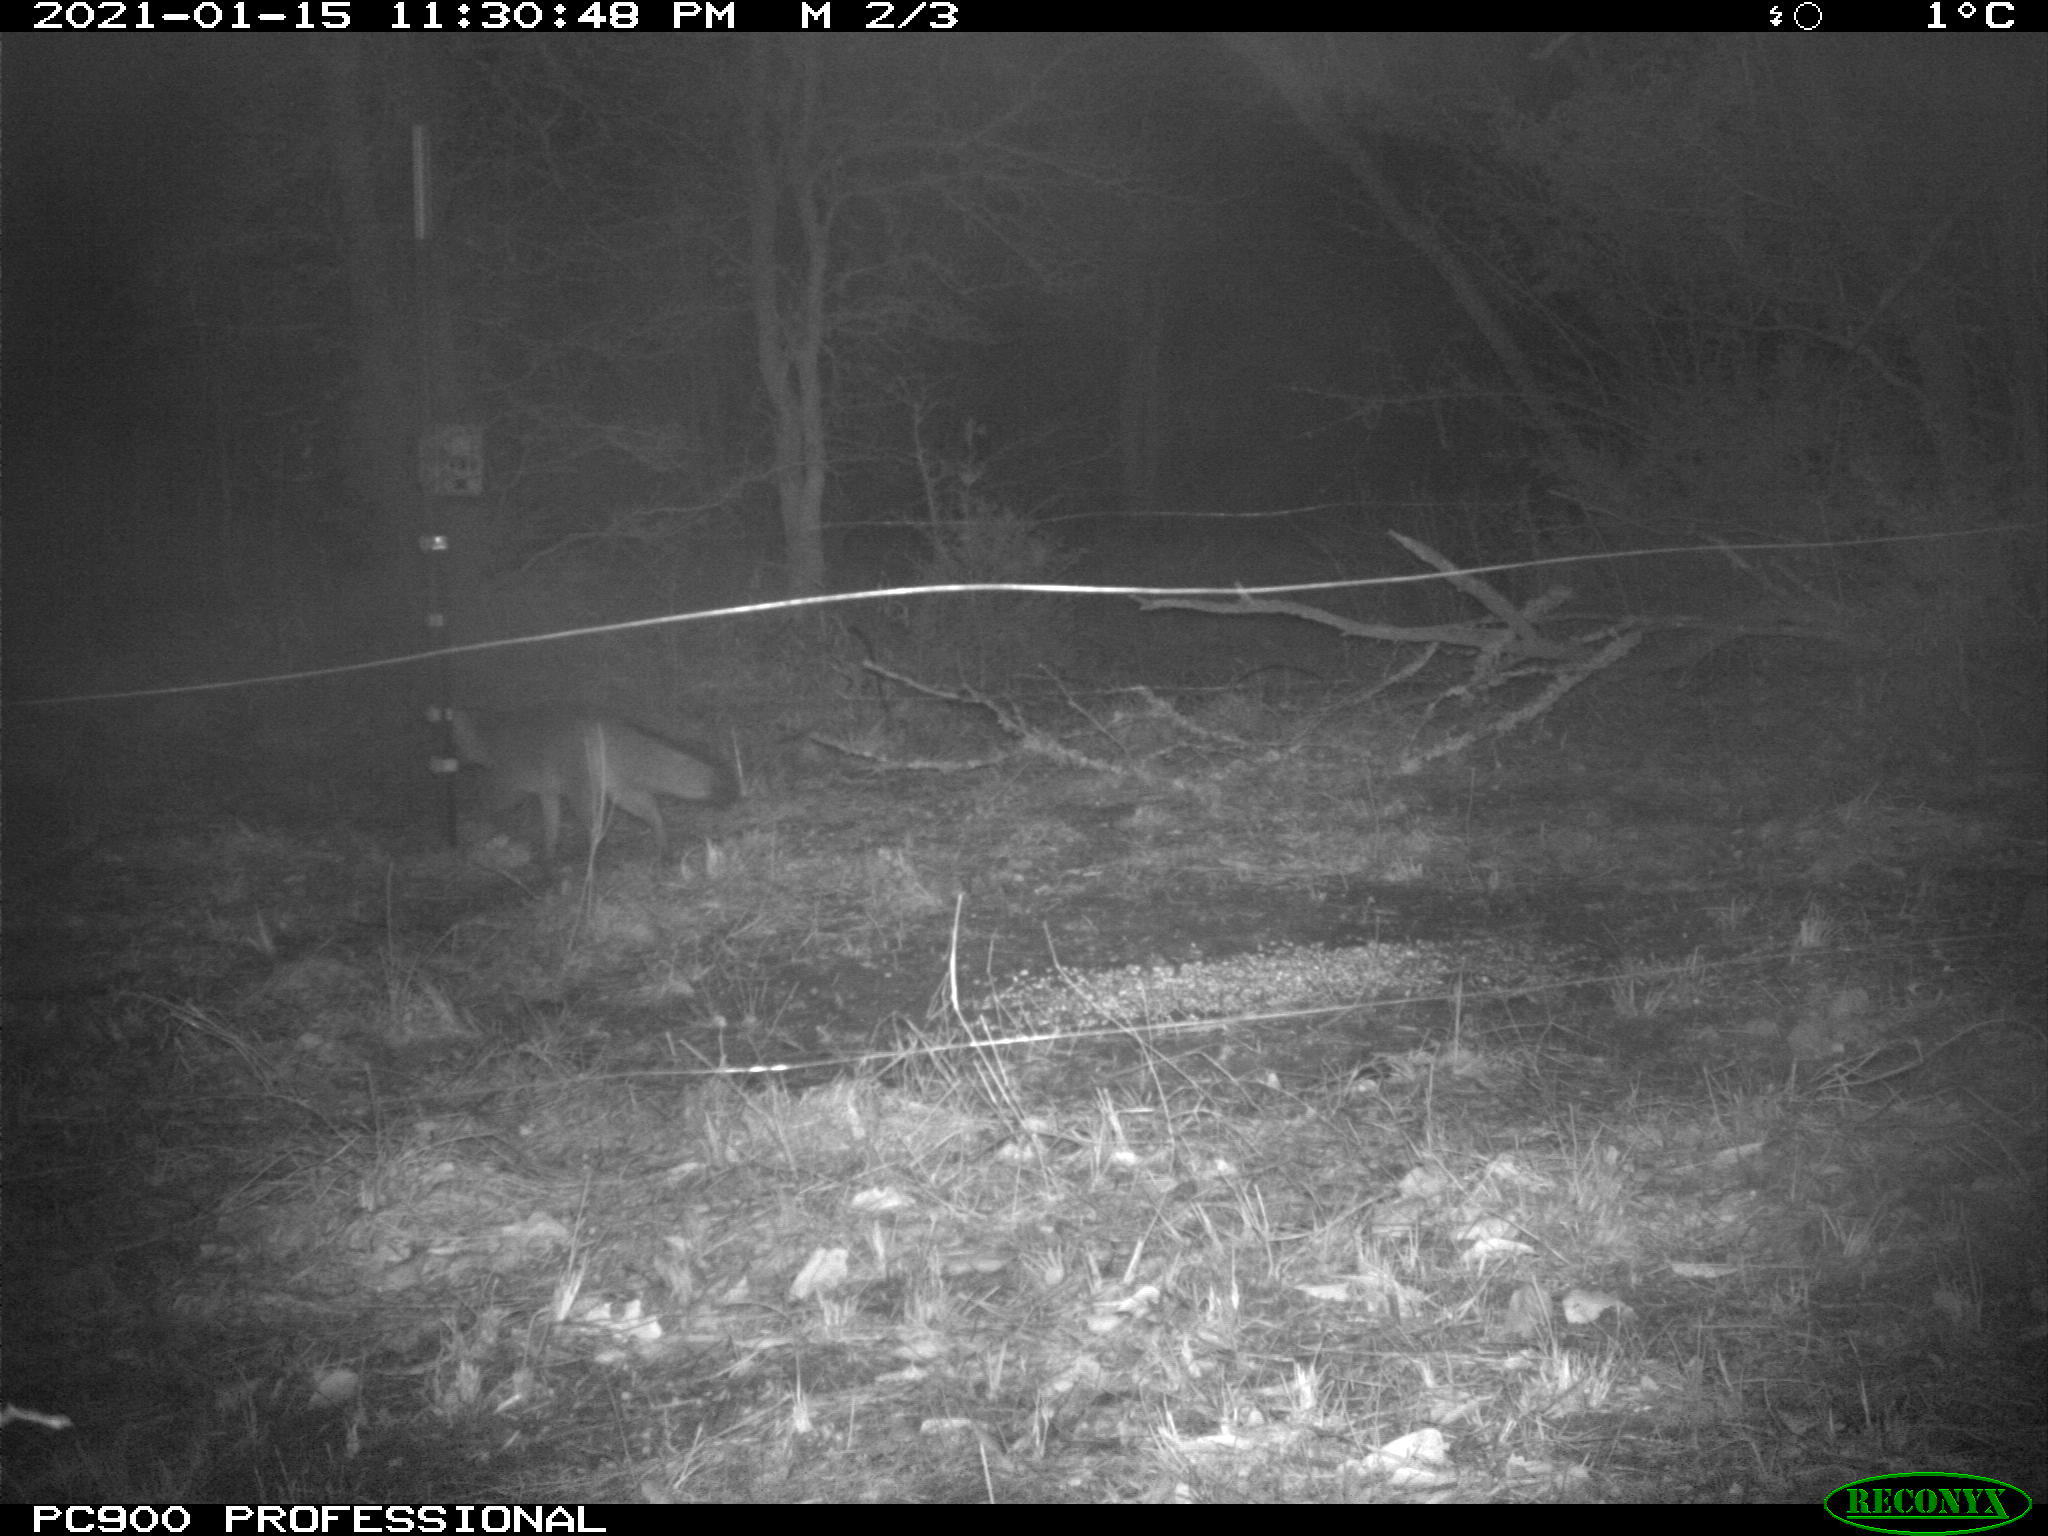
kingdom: Animalia
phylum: Chordata
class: Mammalia
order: Carnivora
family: Canidae
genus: Urocyon
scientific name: Urocyon cinereoargenteus
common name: Gray fox
